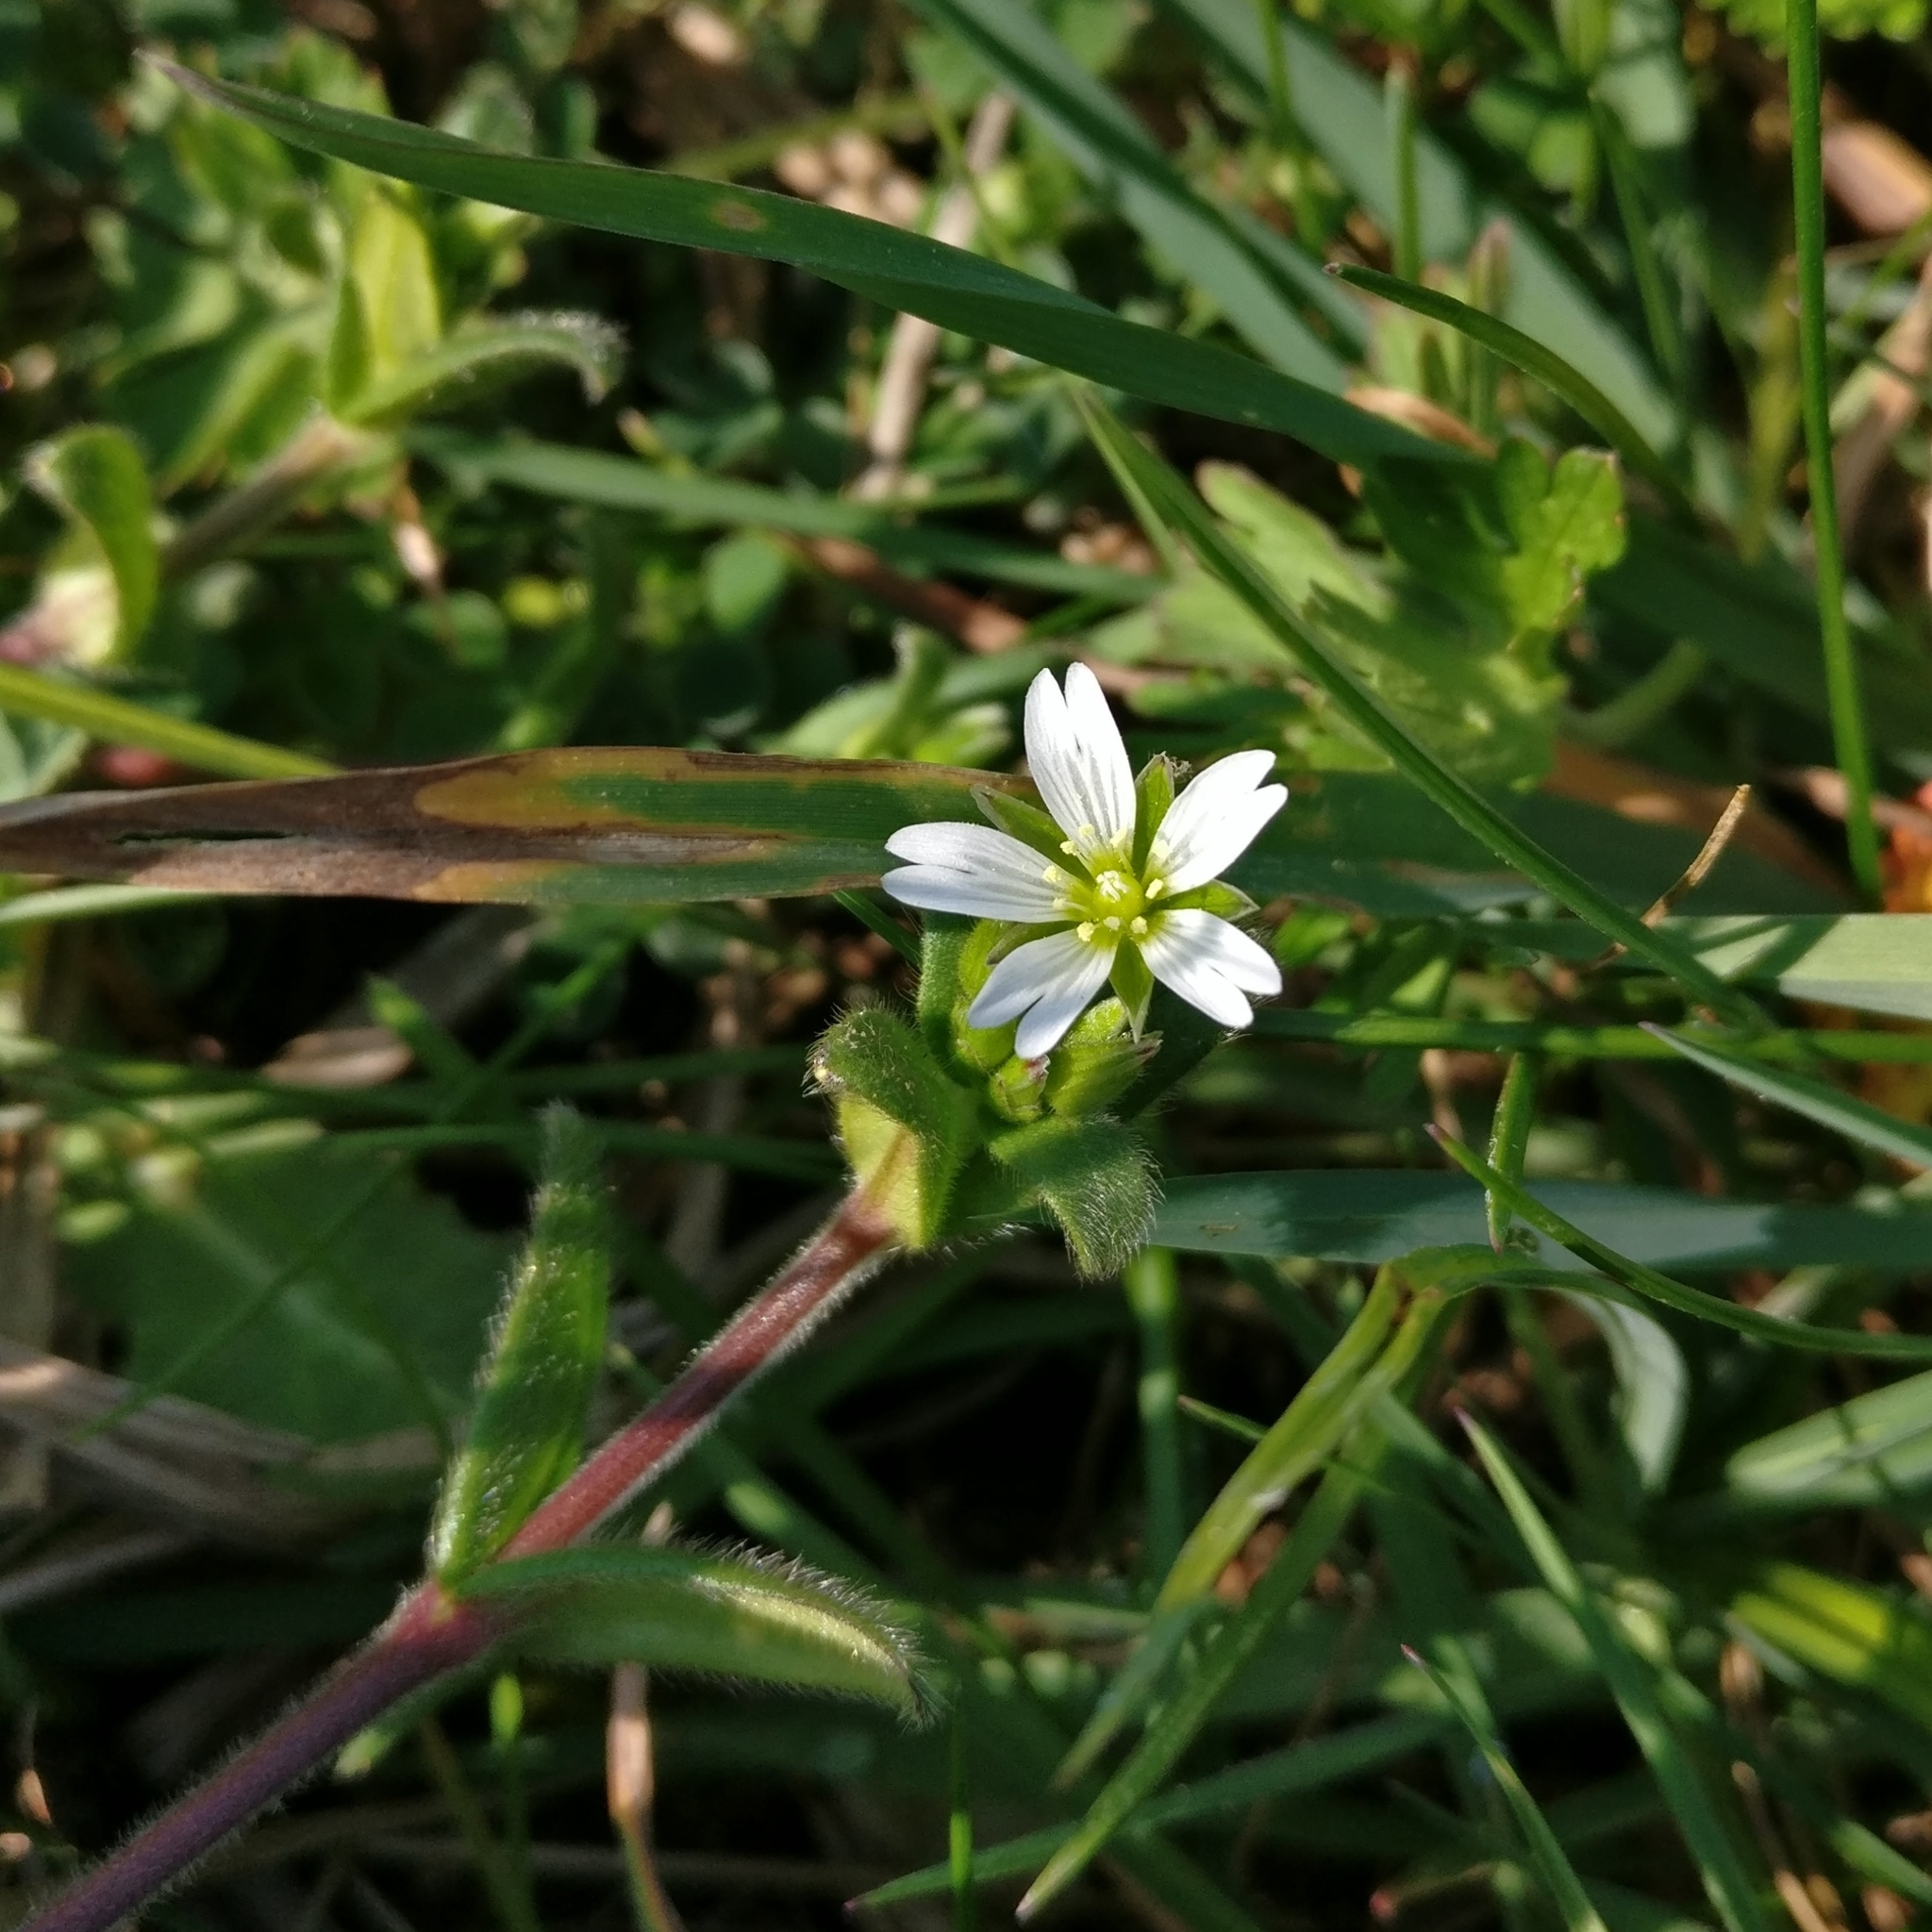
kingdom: Plantae
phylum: Tracheophyta
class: Magnoliopsida
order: Caryophyllales
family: Caryophyllaceae
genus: Cerastium
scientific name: Cerastium fontanum
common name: Common mouse-ear
